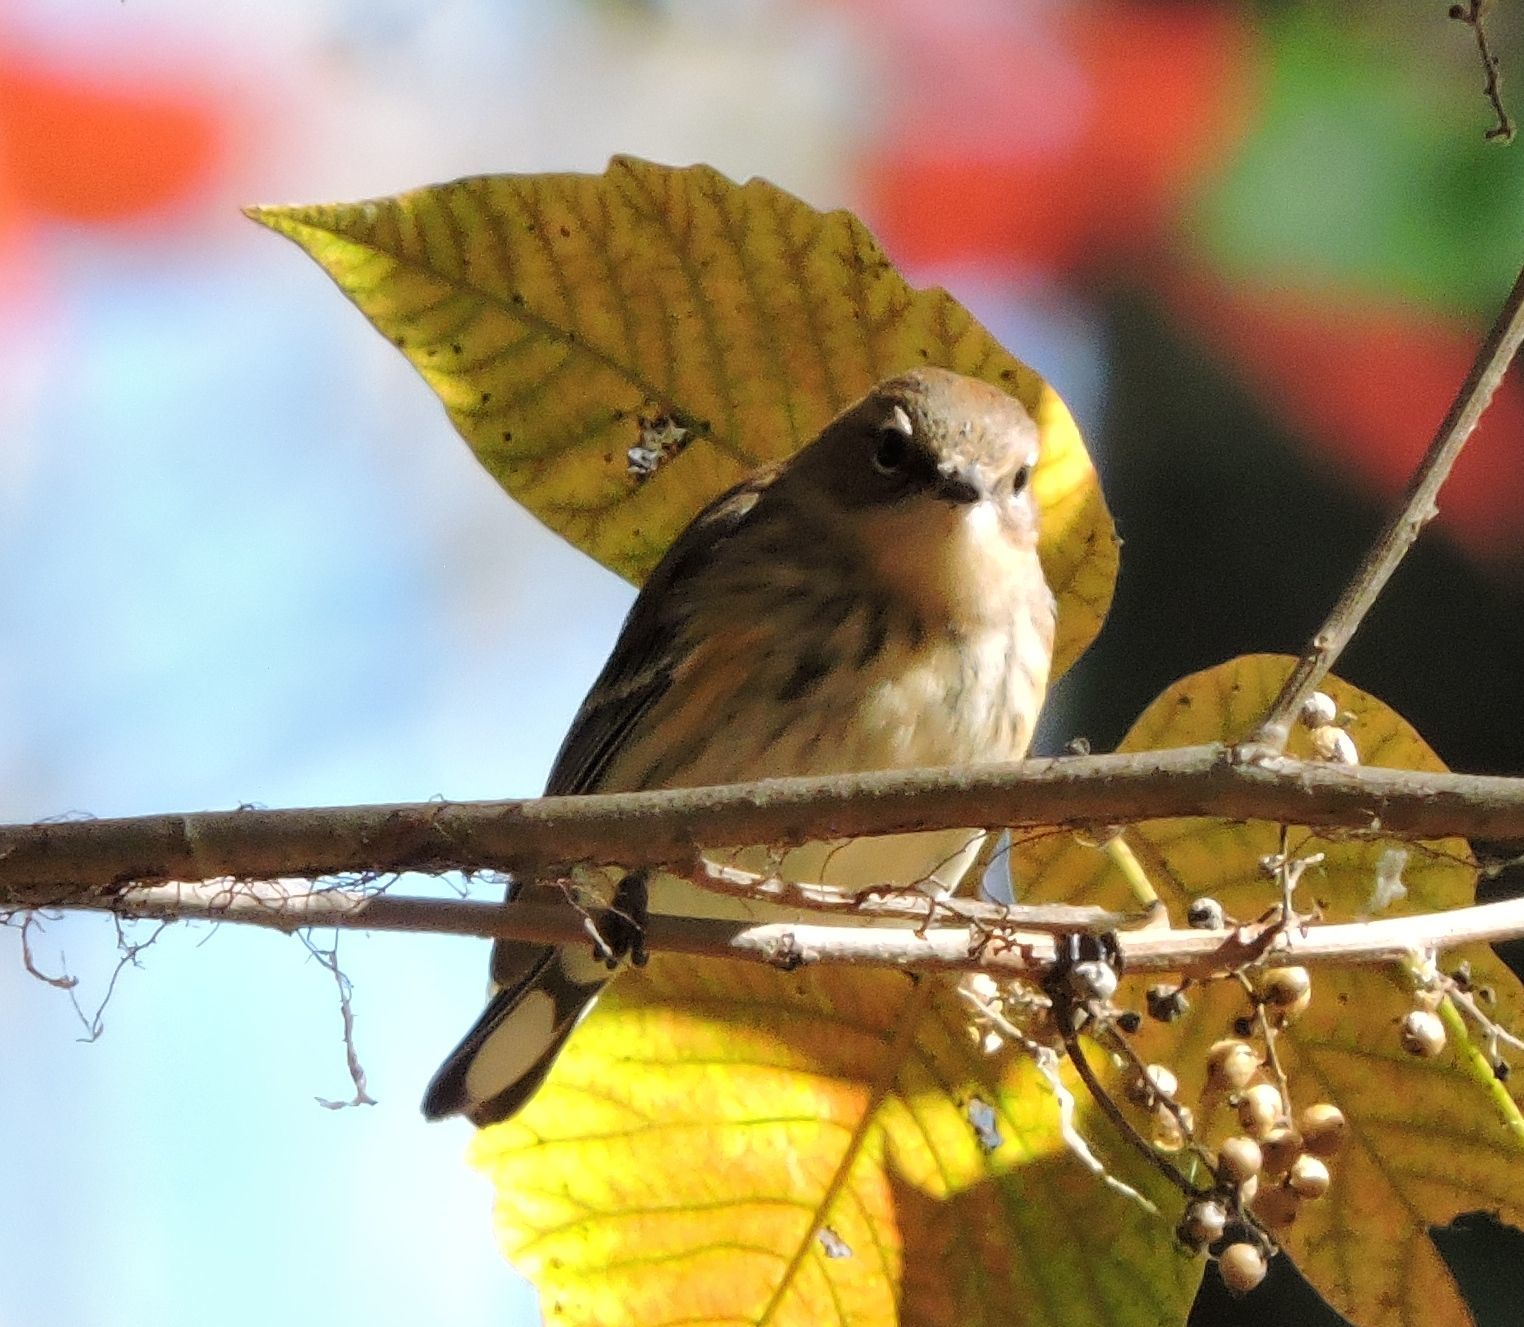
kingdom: Animalia
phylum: Chordata
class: Aves
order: Passeriformes
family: Parulidae
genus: Setophaga
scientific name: Setophaga coronata
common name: Myrtle warbler
